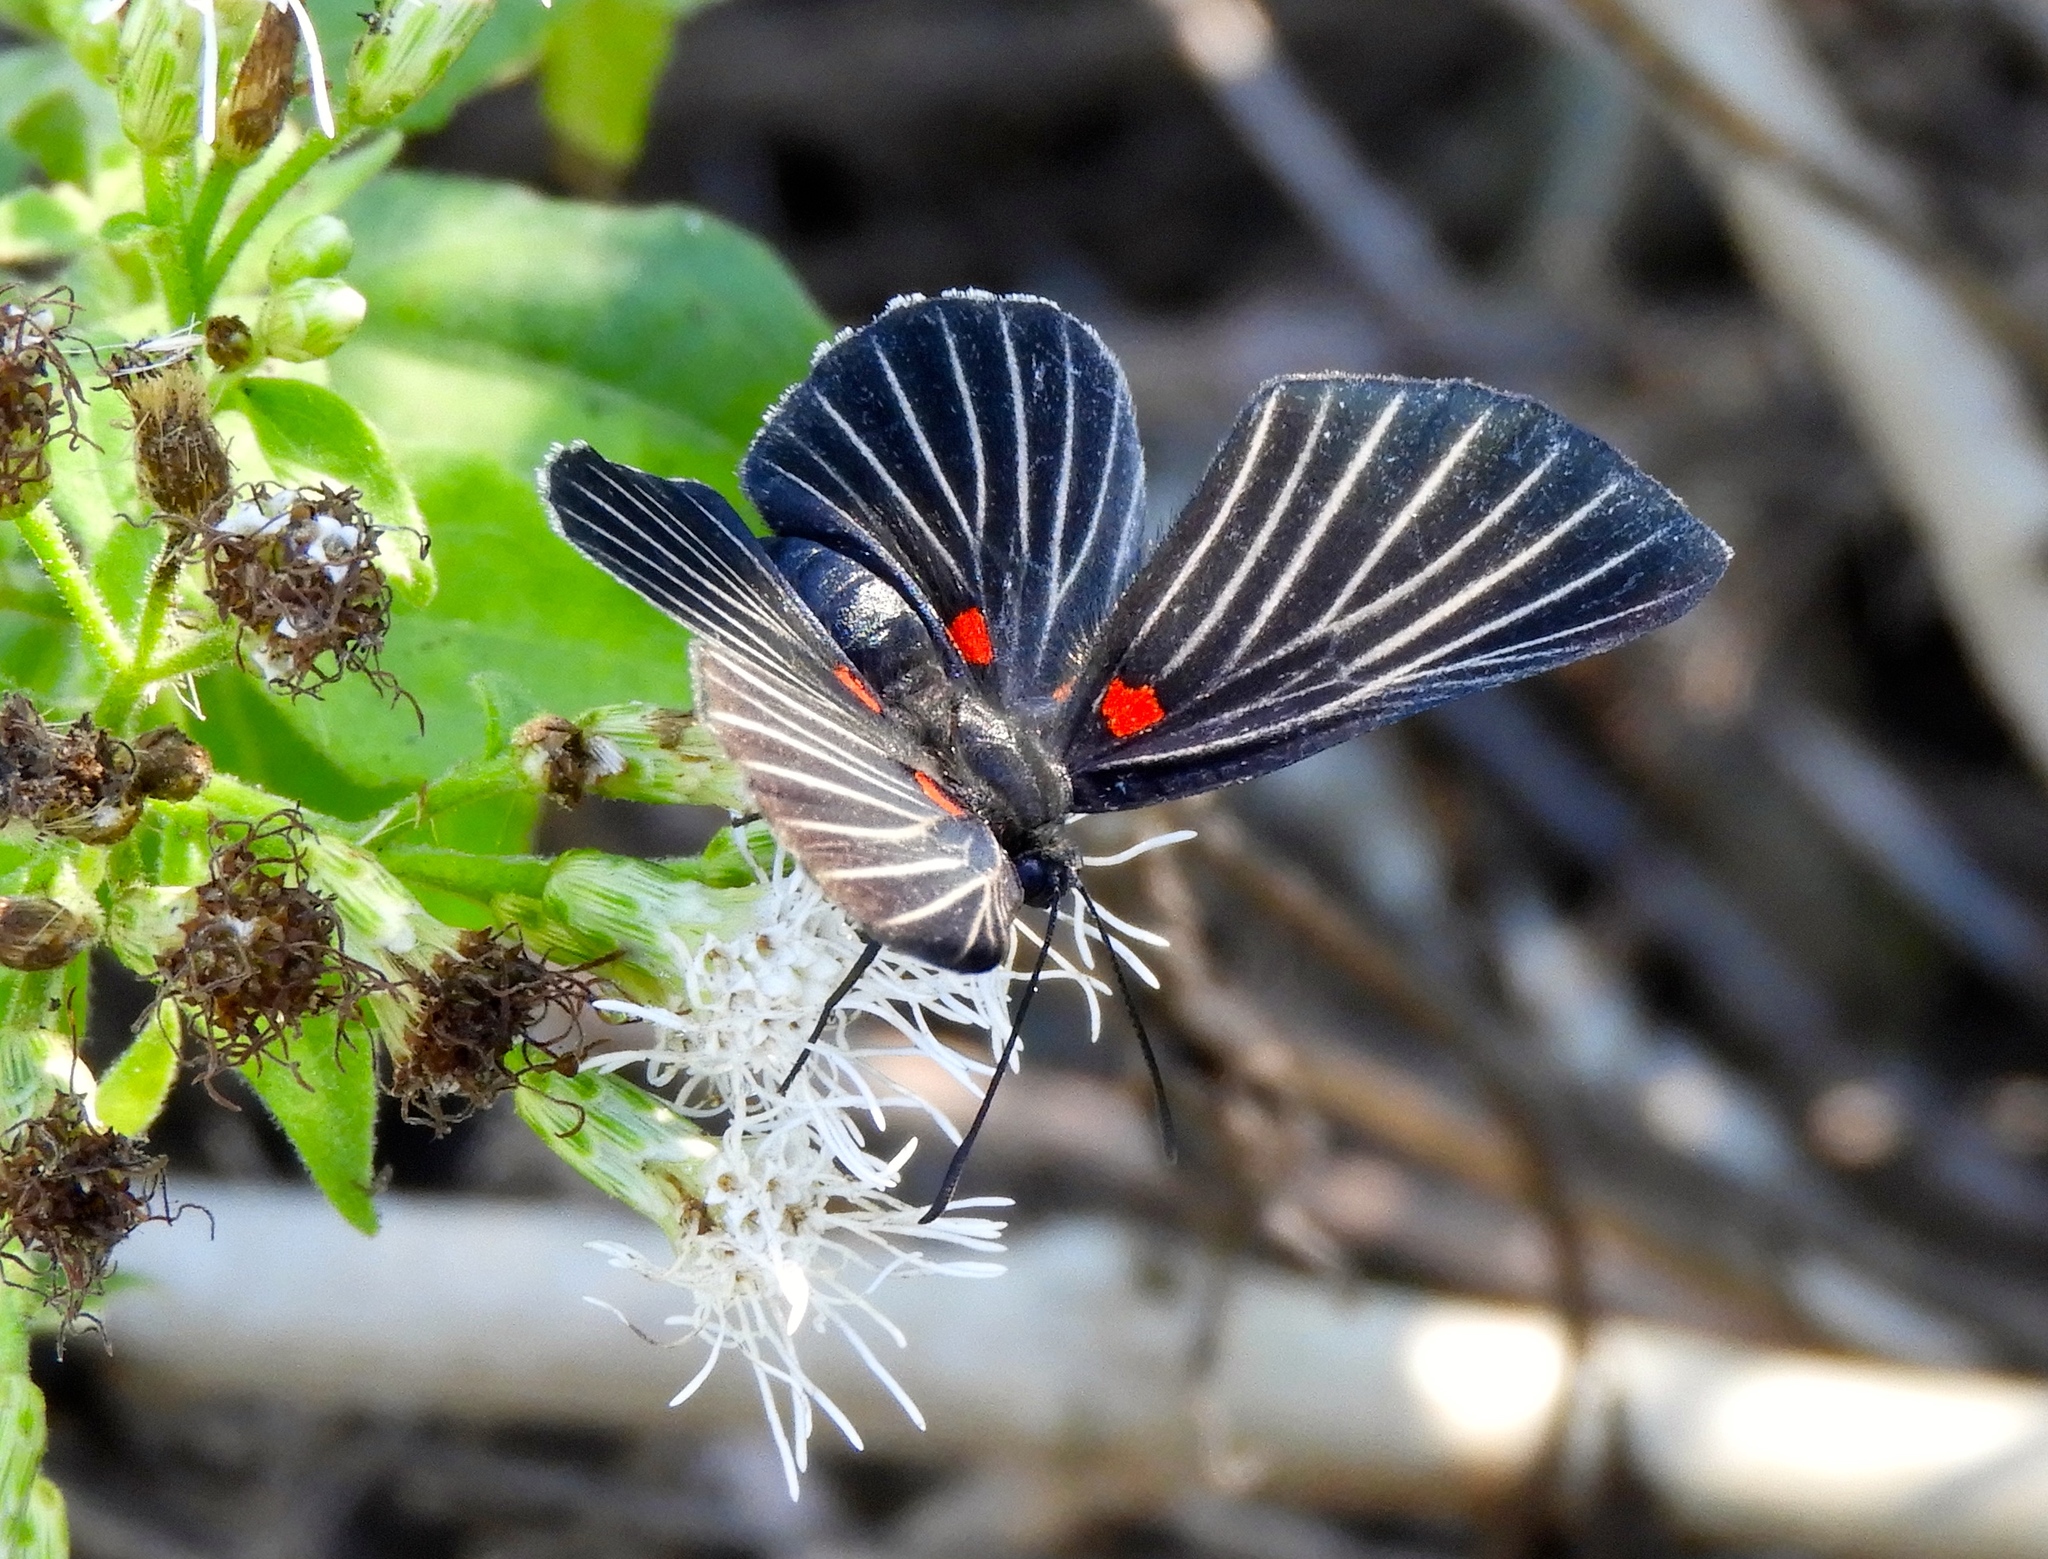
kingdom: Animalia
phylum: Arthropoda
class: Insecta
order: Lepidoptera
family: Lycaenidae
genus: Melanis
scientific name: Melanis
